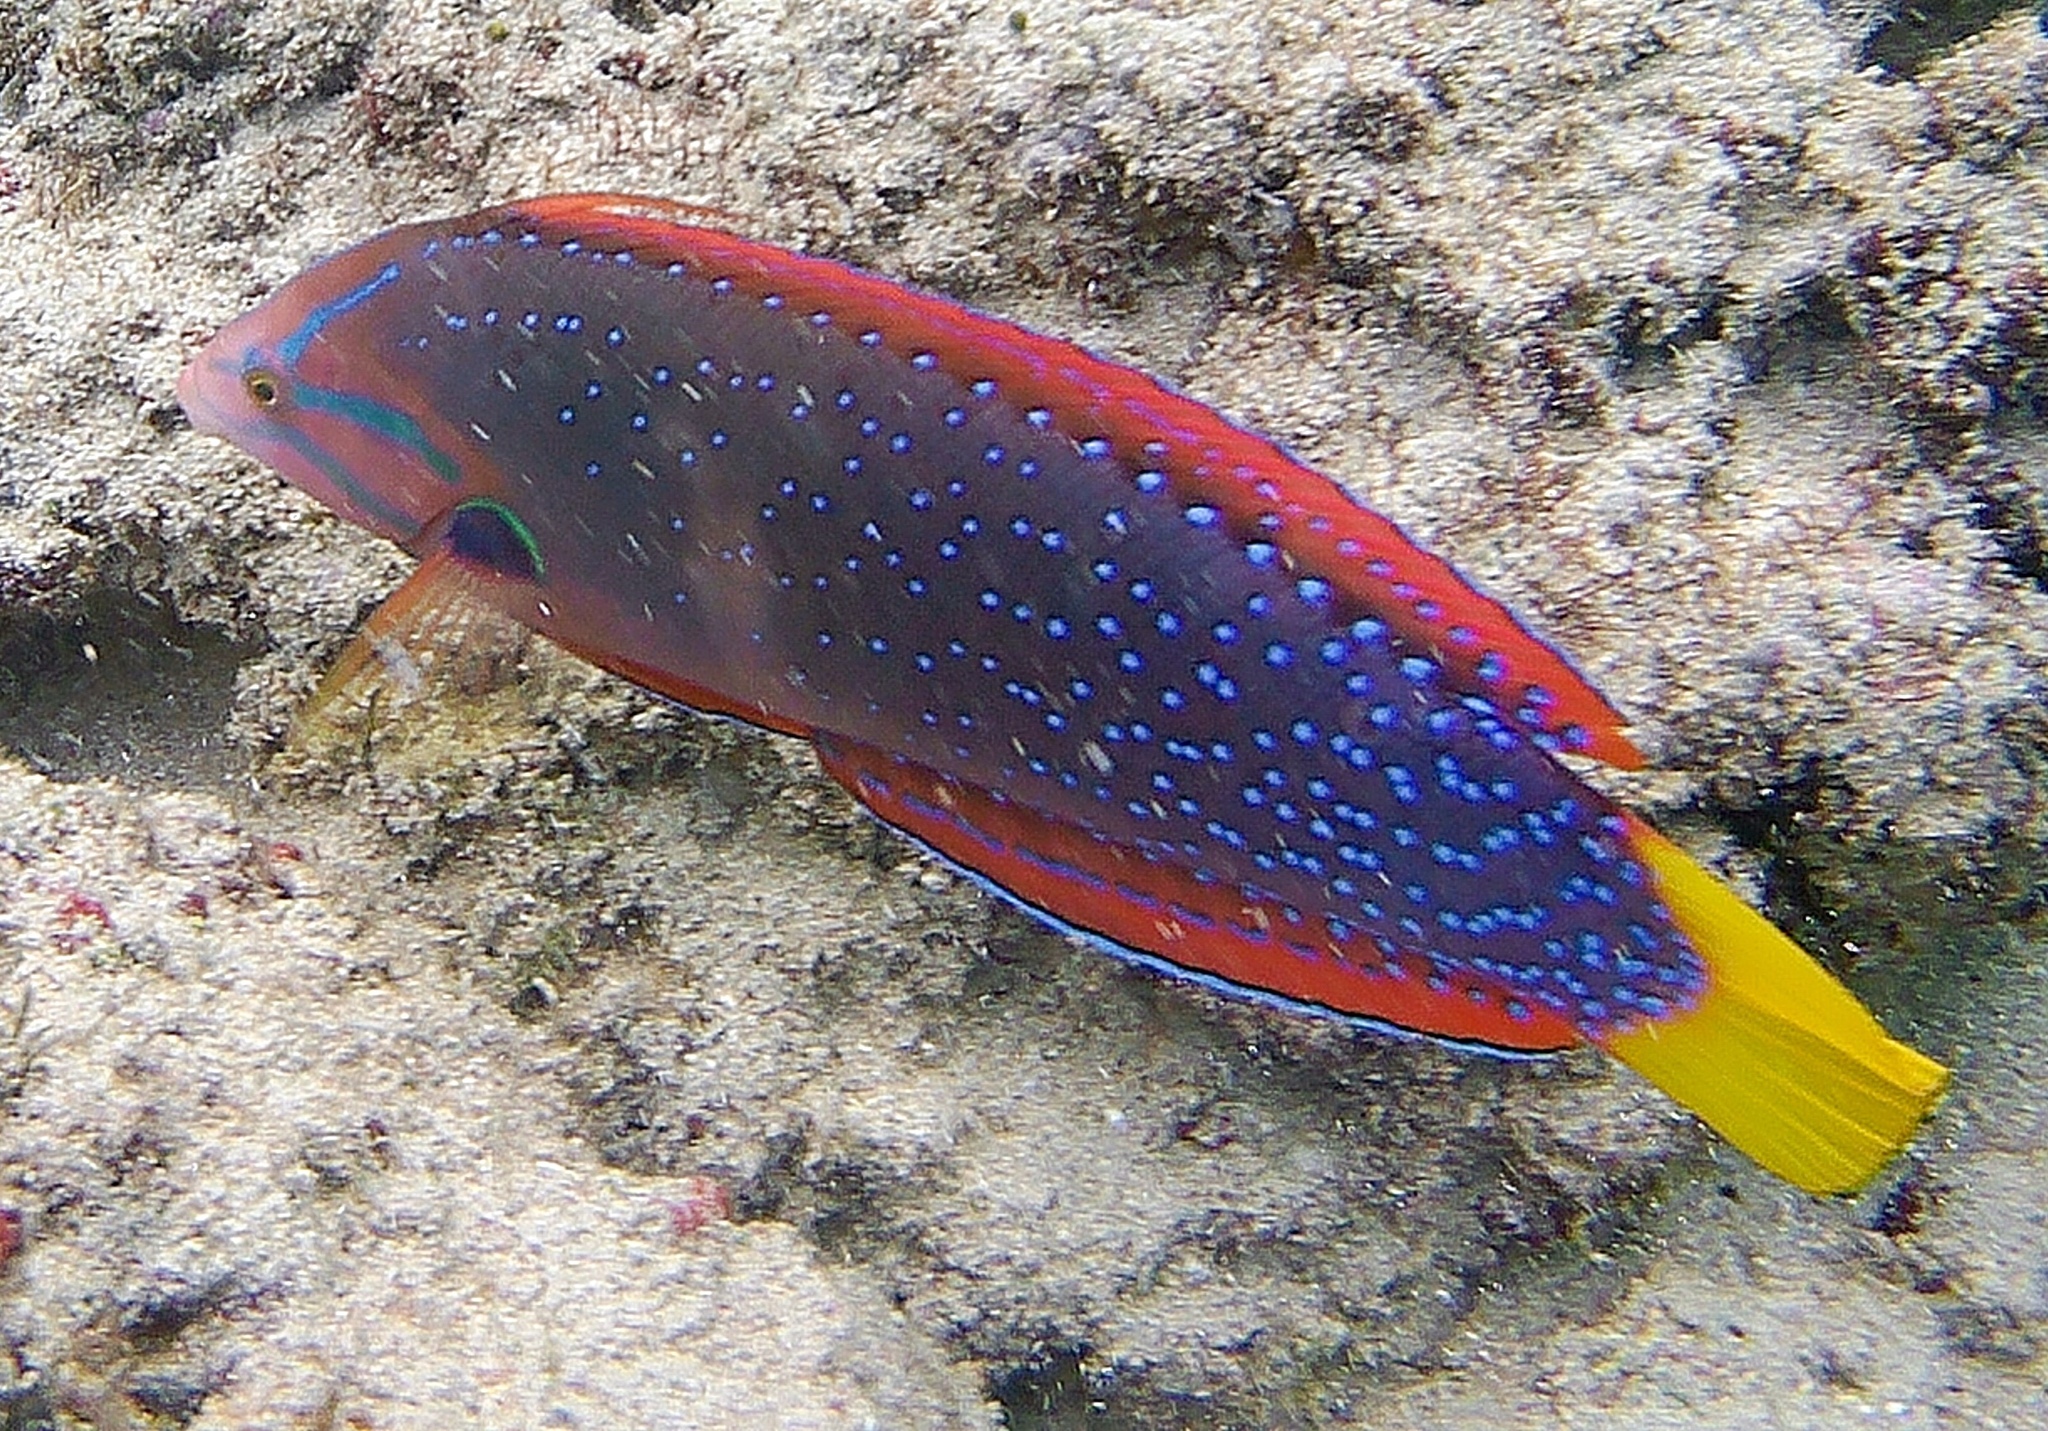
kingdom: Animalia
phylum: Chordata
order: Perciformes
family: Labridae
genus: Coris
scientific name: Coris gaimard
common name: Yellowtail coris
